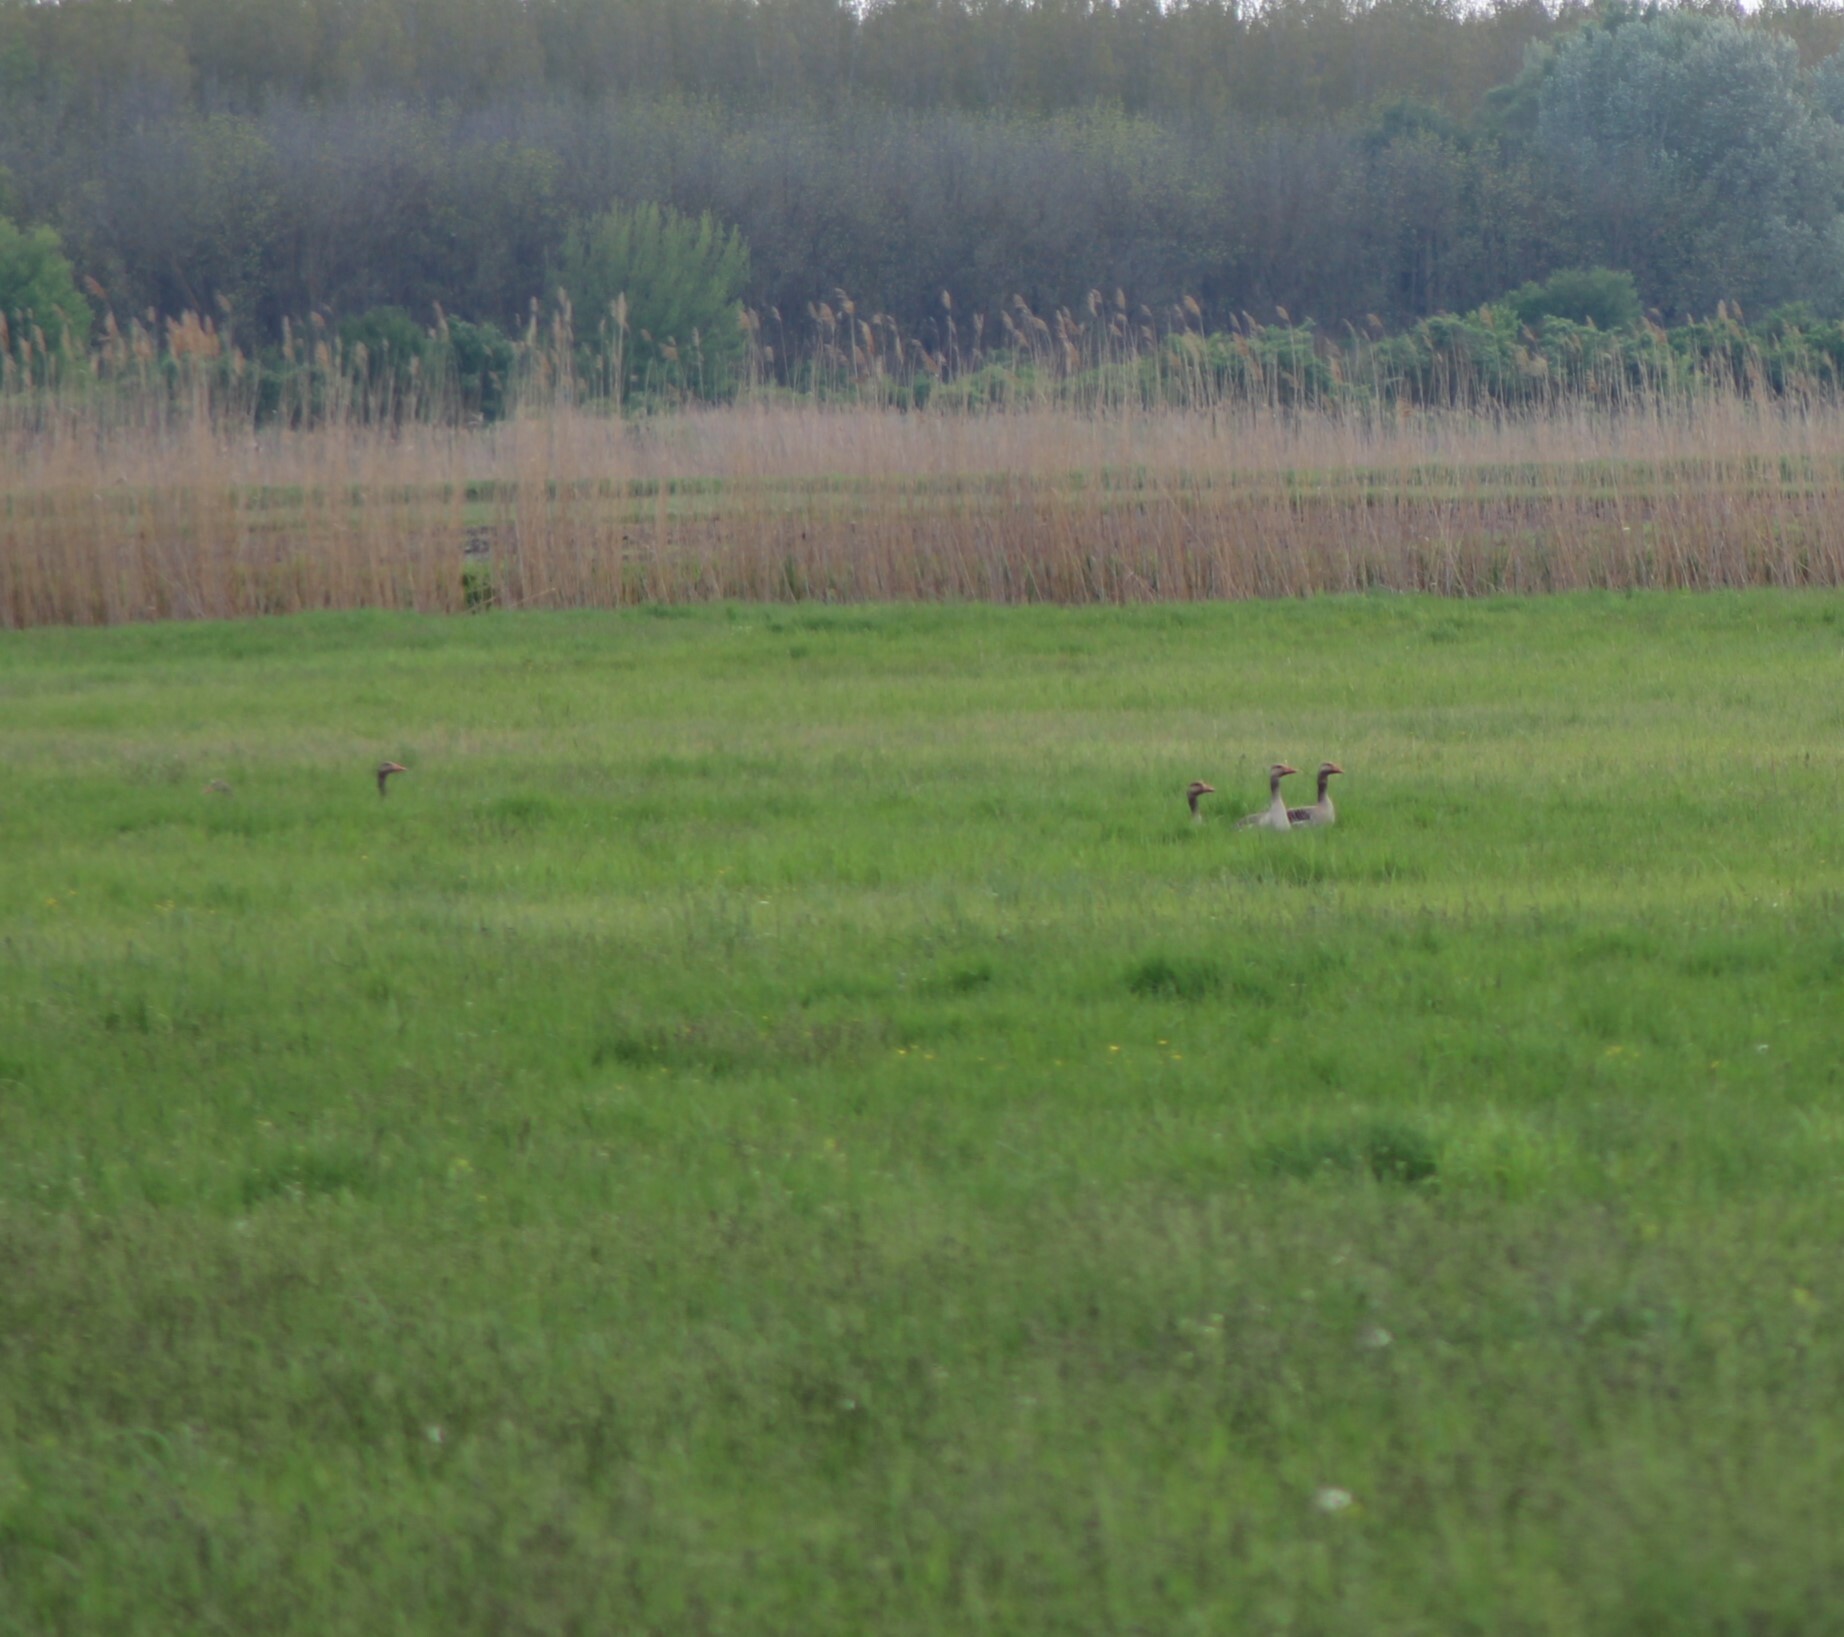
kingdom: Animalia
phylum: Chordata
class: Aves
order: Anseriformes
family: Anatidae
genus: Anser
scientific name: Anser anser
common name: Greylag goose
